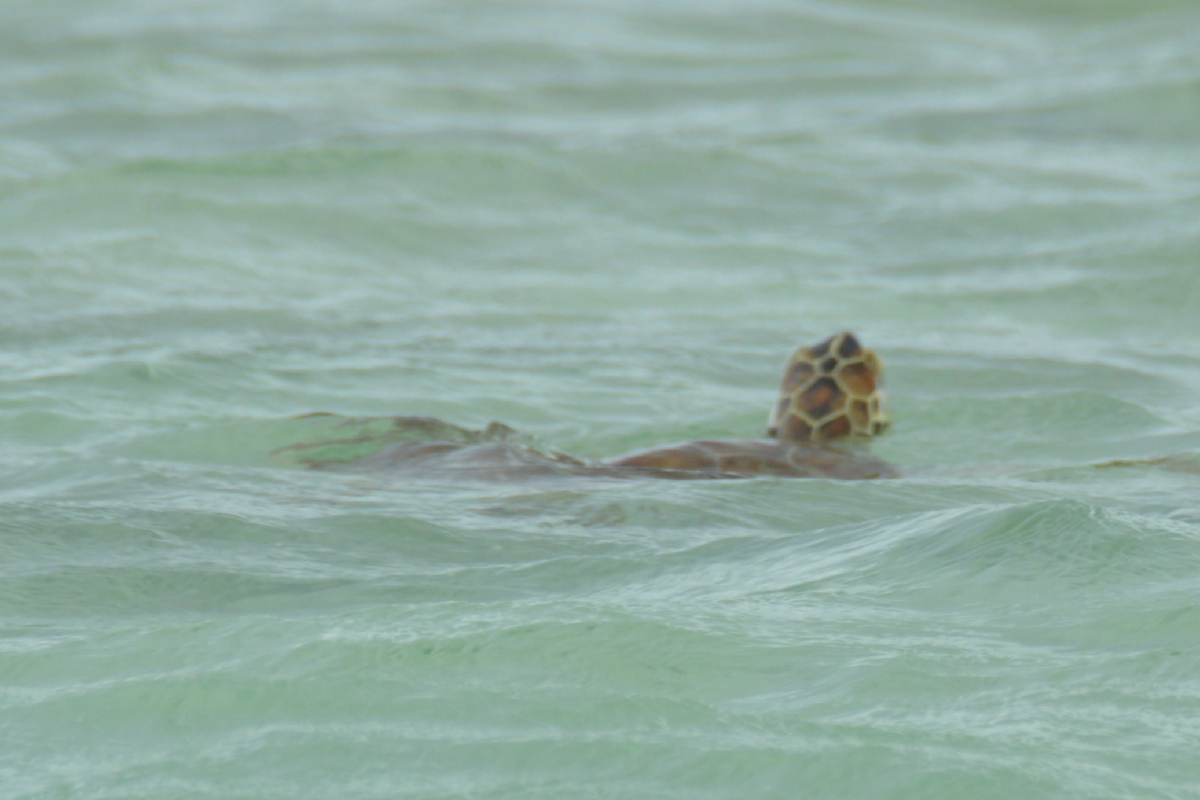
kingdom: Animalia
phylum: Chordata
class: Testudines
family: Cheloniidae
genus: Chelonia
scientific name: Chelonia mydas
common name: Green turtle
